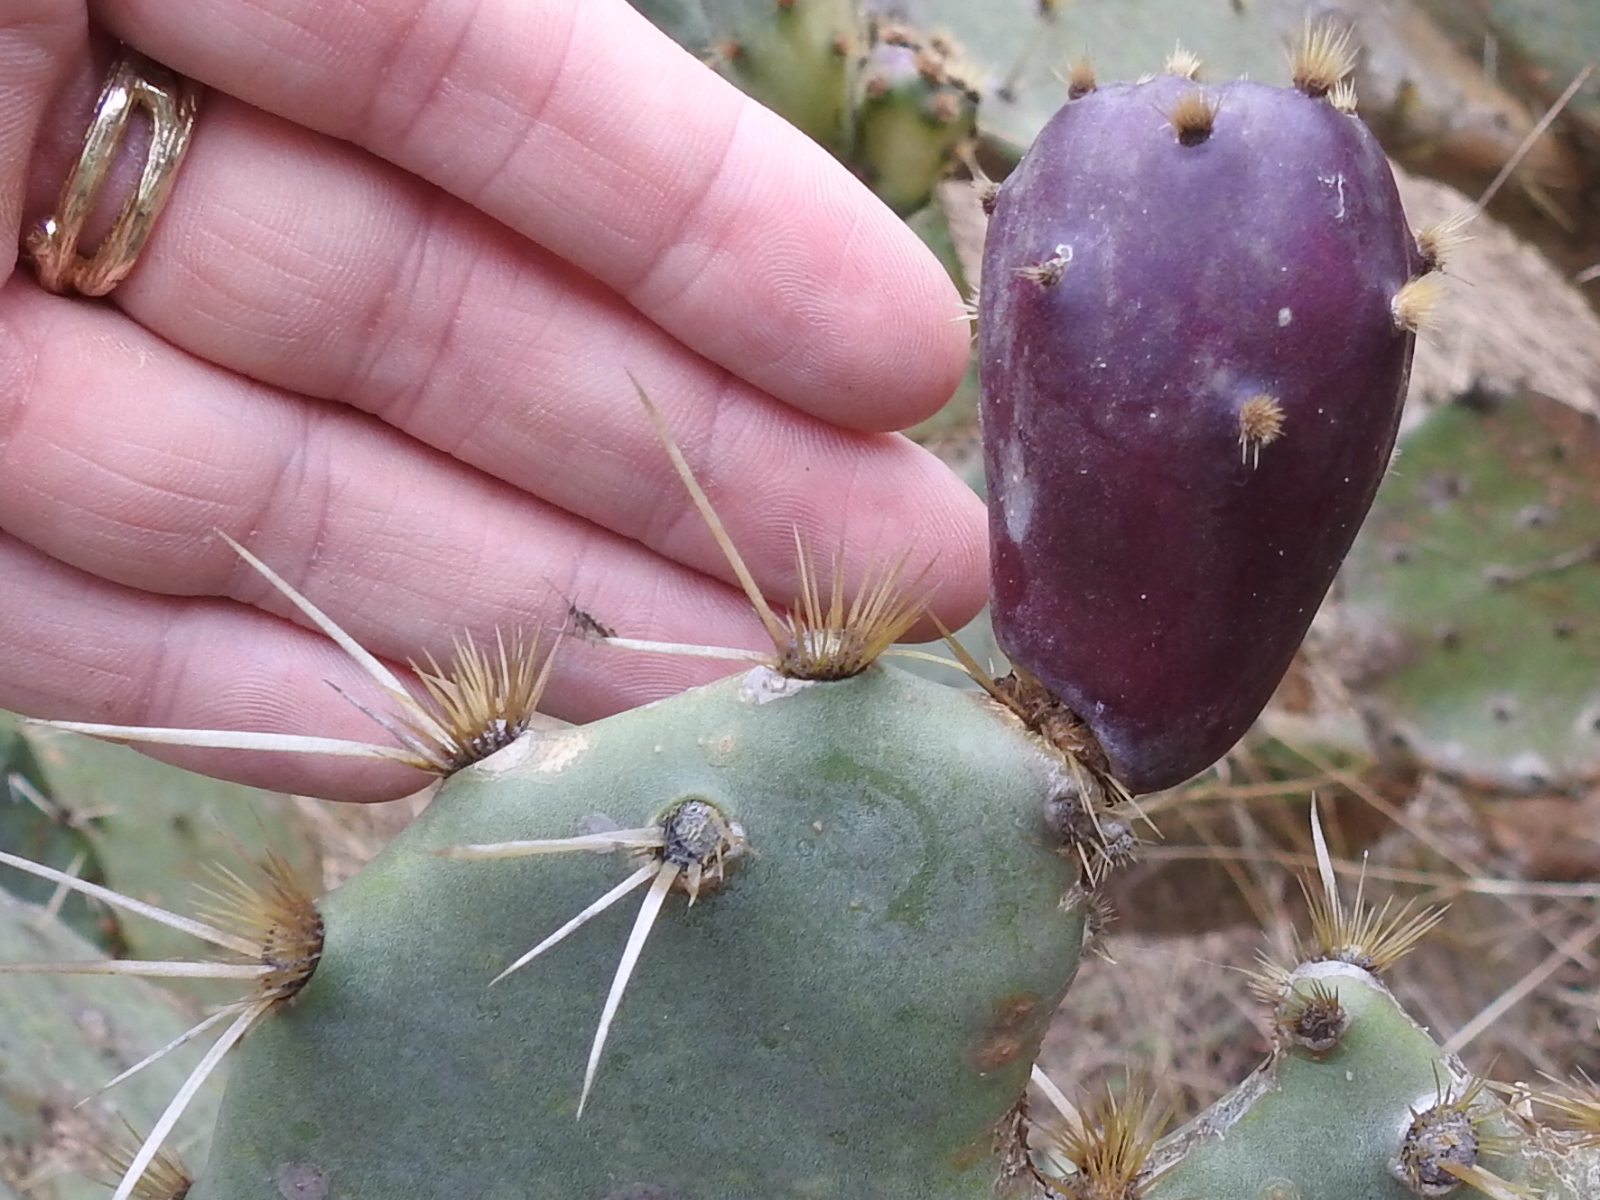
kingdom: Plantae
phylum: Tracheophyta
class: Magnoliopsida
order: Caryophyllales
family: Cactaceae
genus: Opuntia
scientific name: Opuntia engelmannii
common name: Cactus-apple
